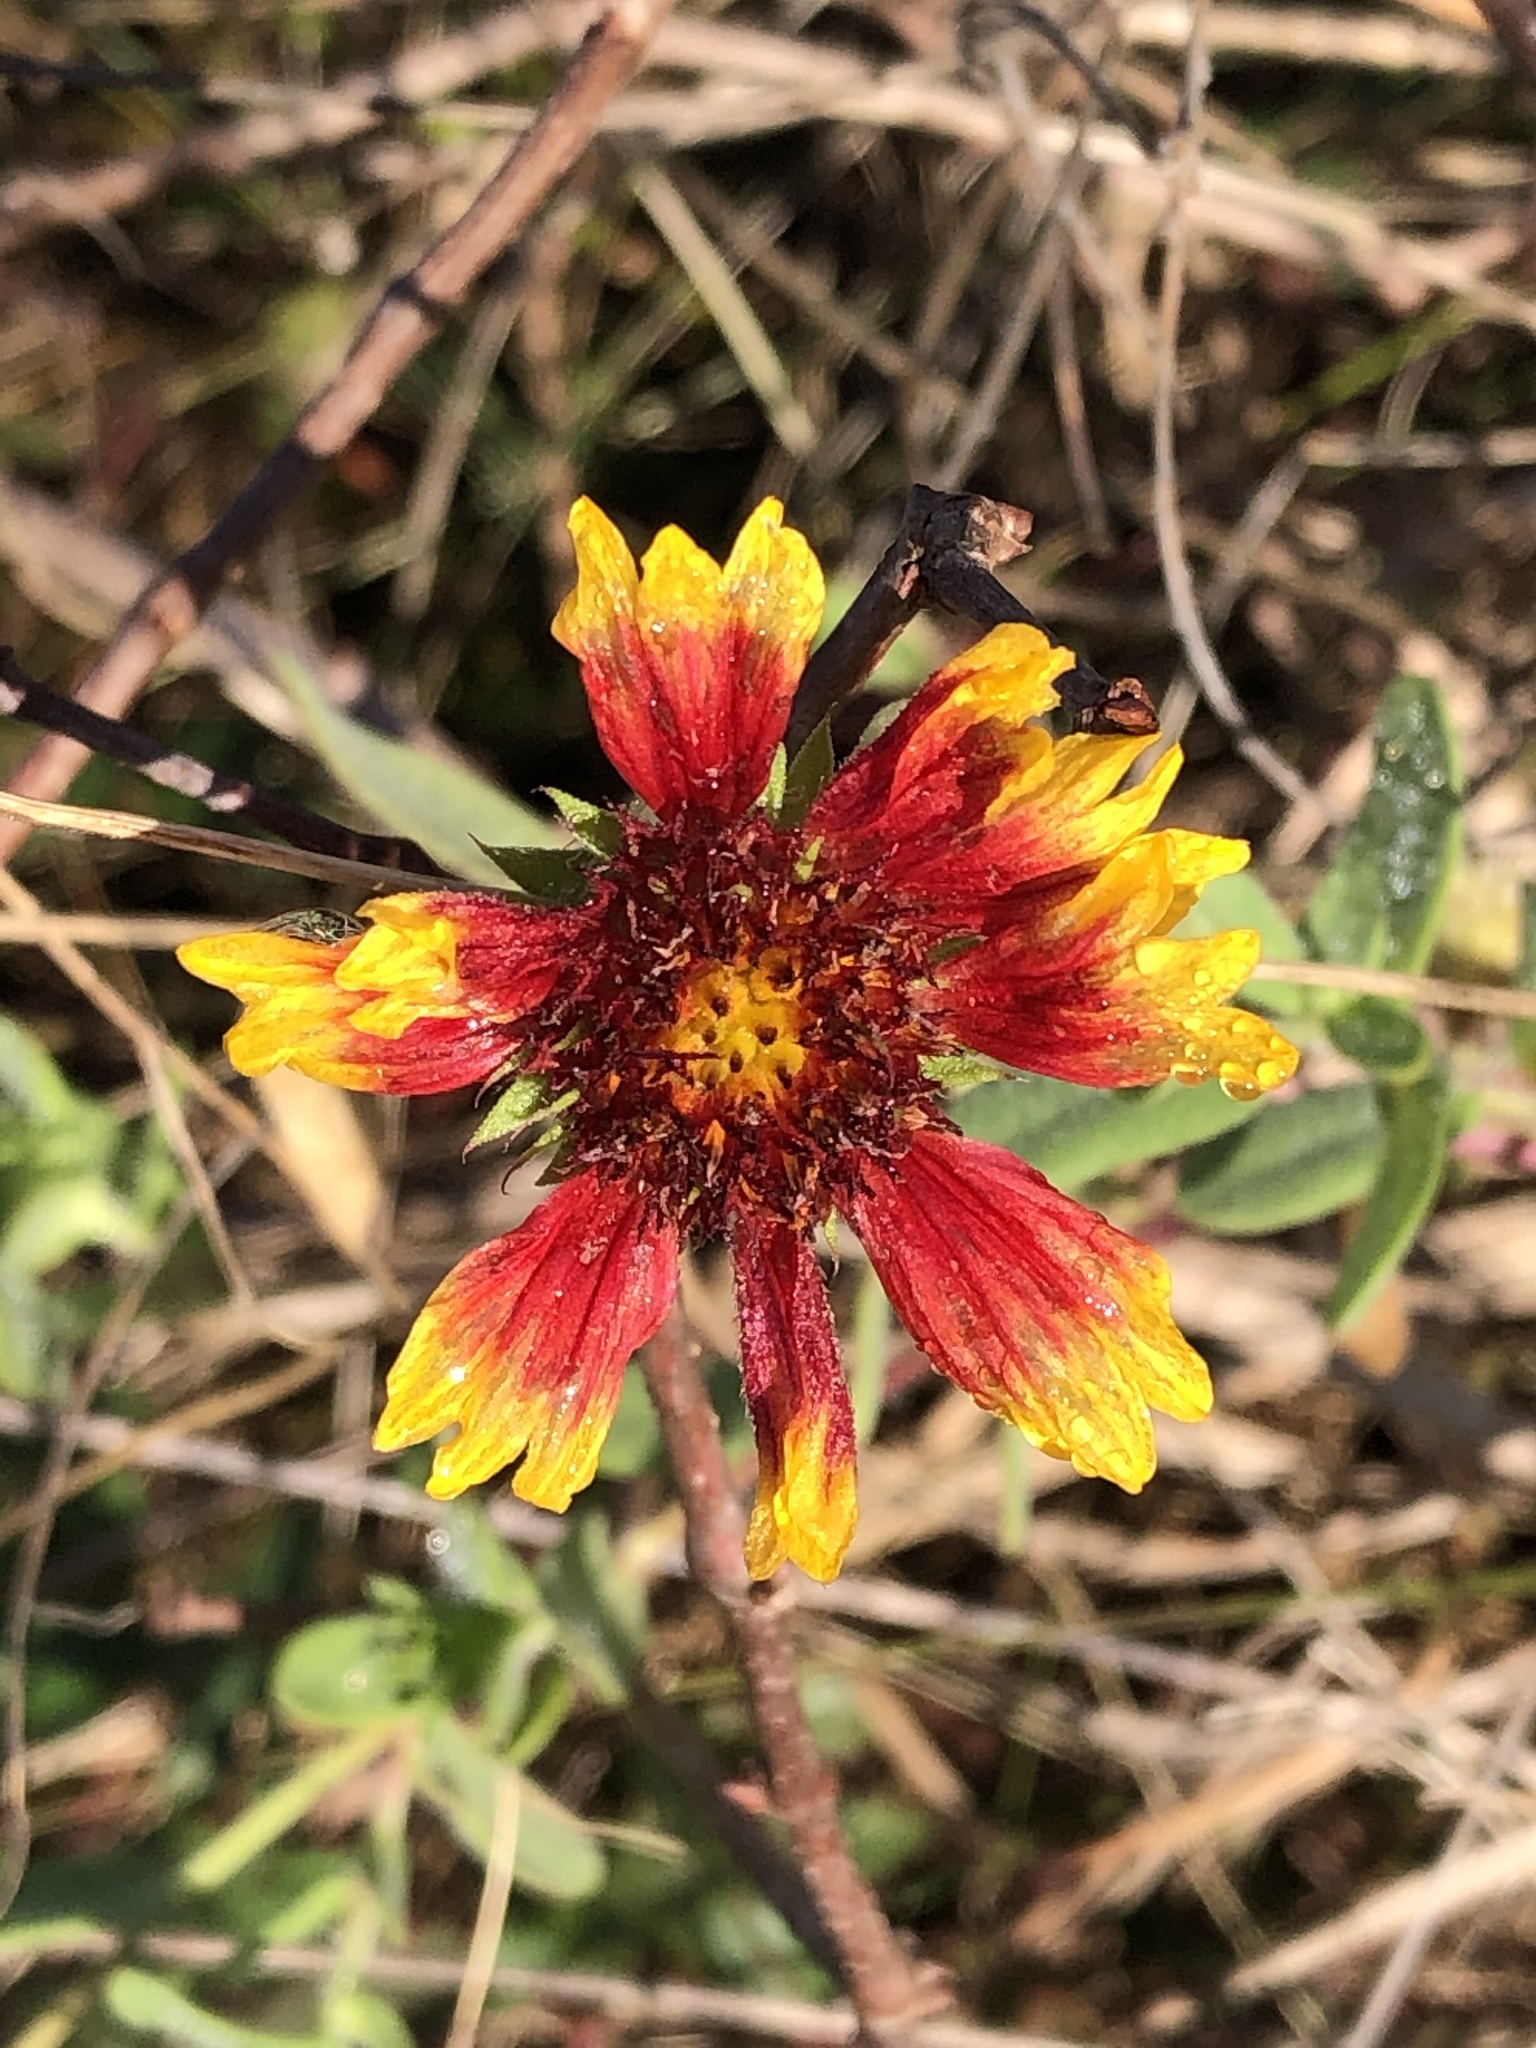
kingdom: Plantae
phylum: Tracheophyta
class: Magnoliopsida
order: Asterales
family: Asteraceae
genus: Gaillardia
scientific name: Gaillardia pulchella
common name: Firewheel
